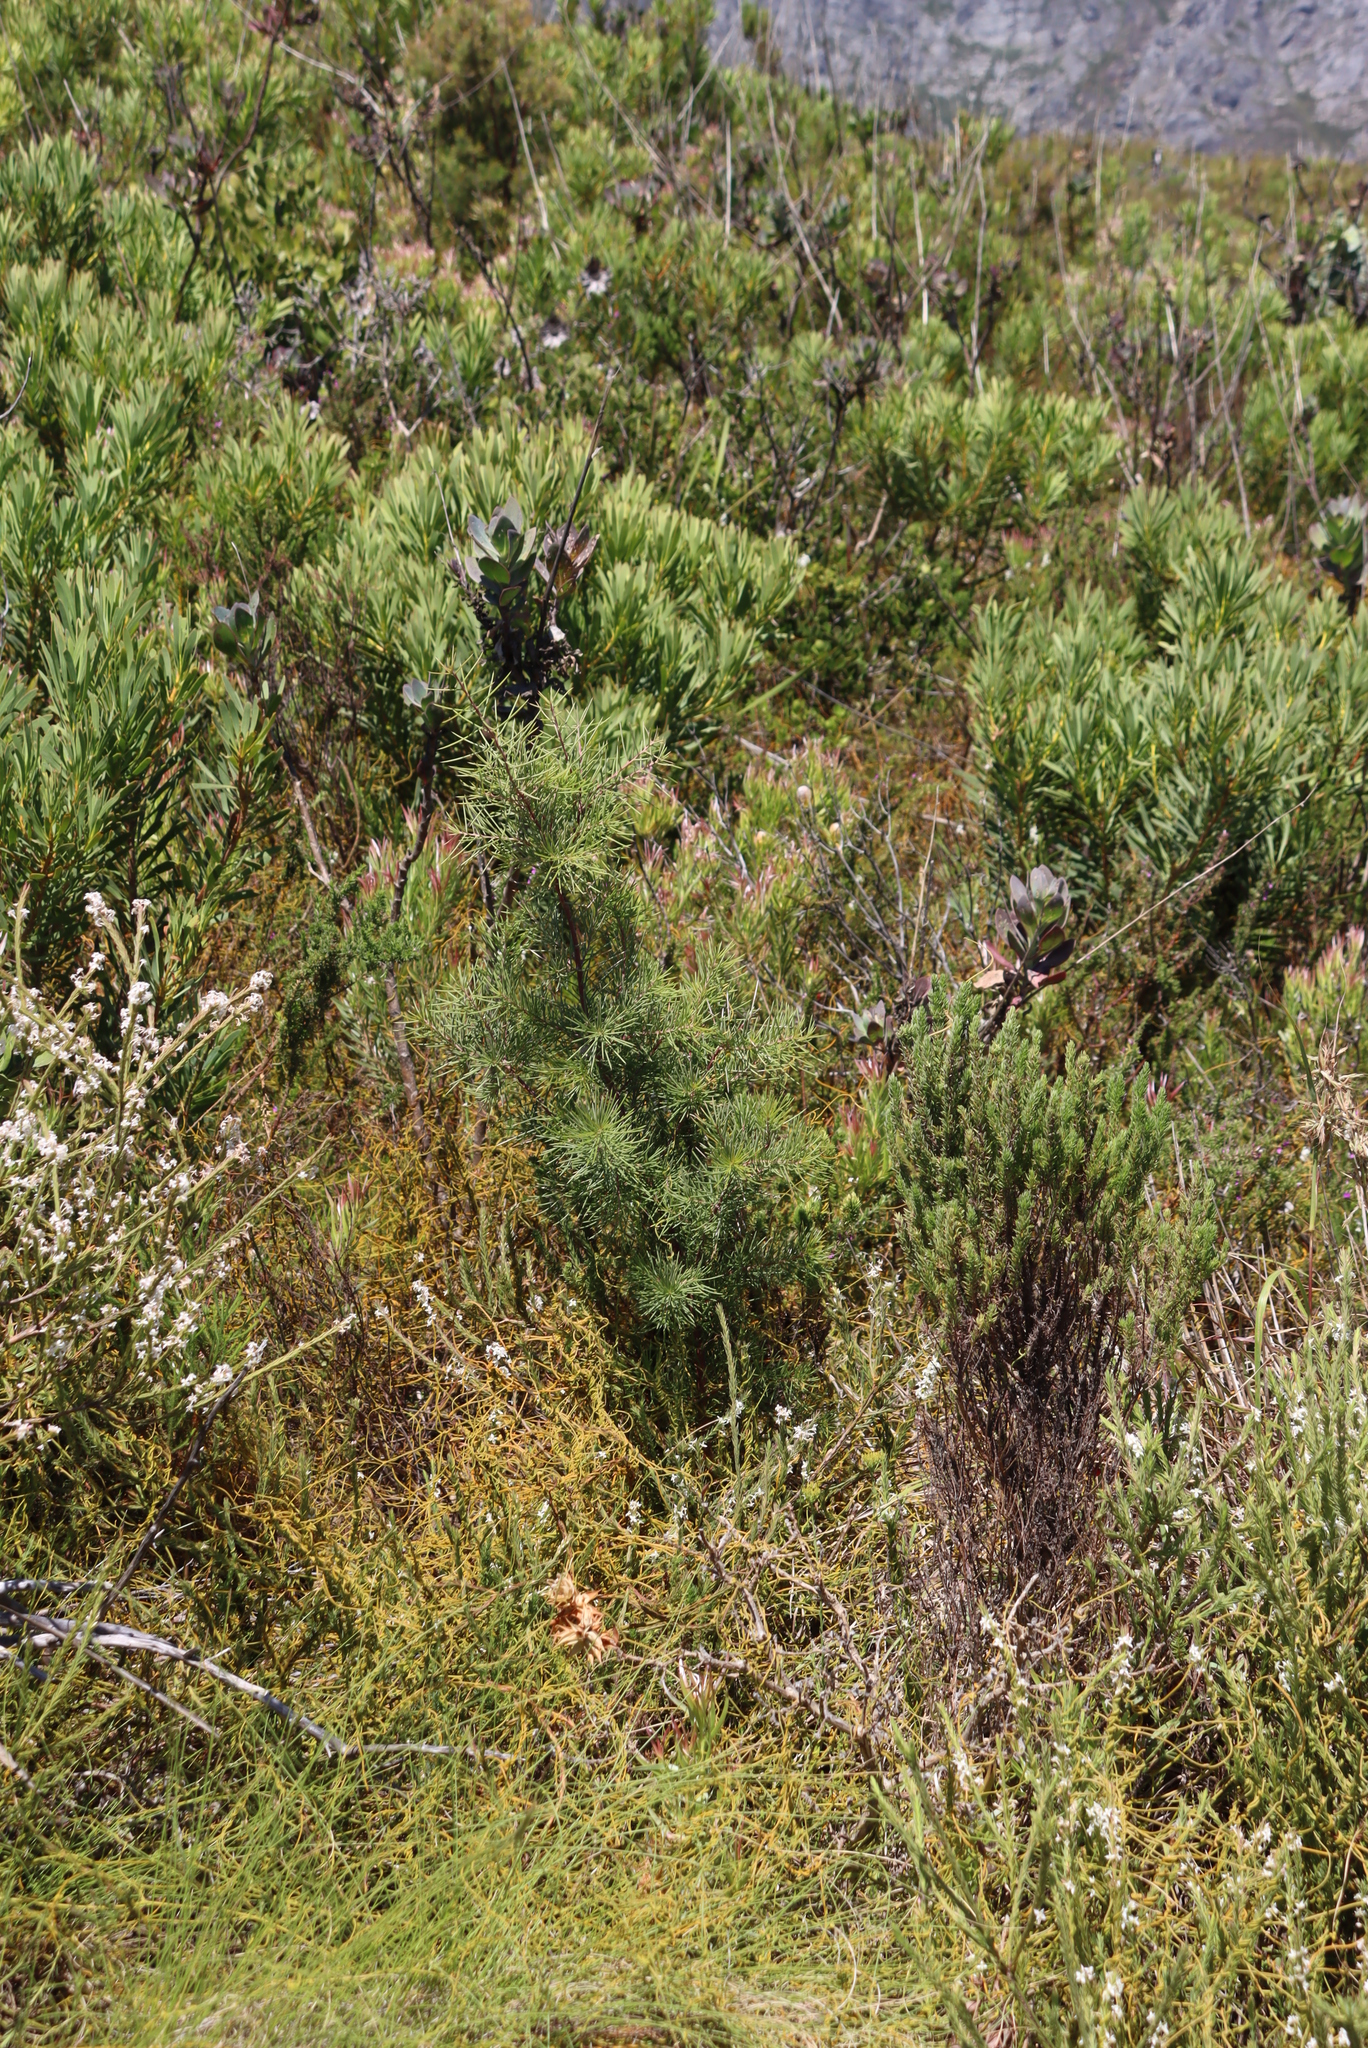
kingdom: Plantae
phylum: Tracheophyta
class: Magnoliopsida
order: Proteales
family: Proteaceae
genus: Hakea
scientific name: Hakea sericea
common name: Needle bush
